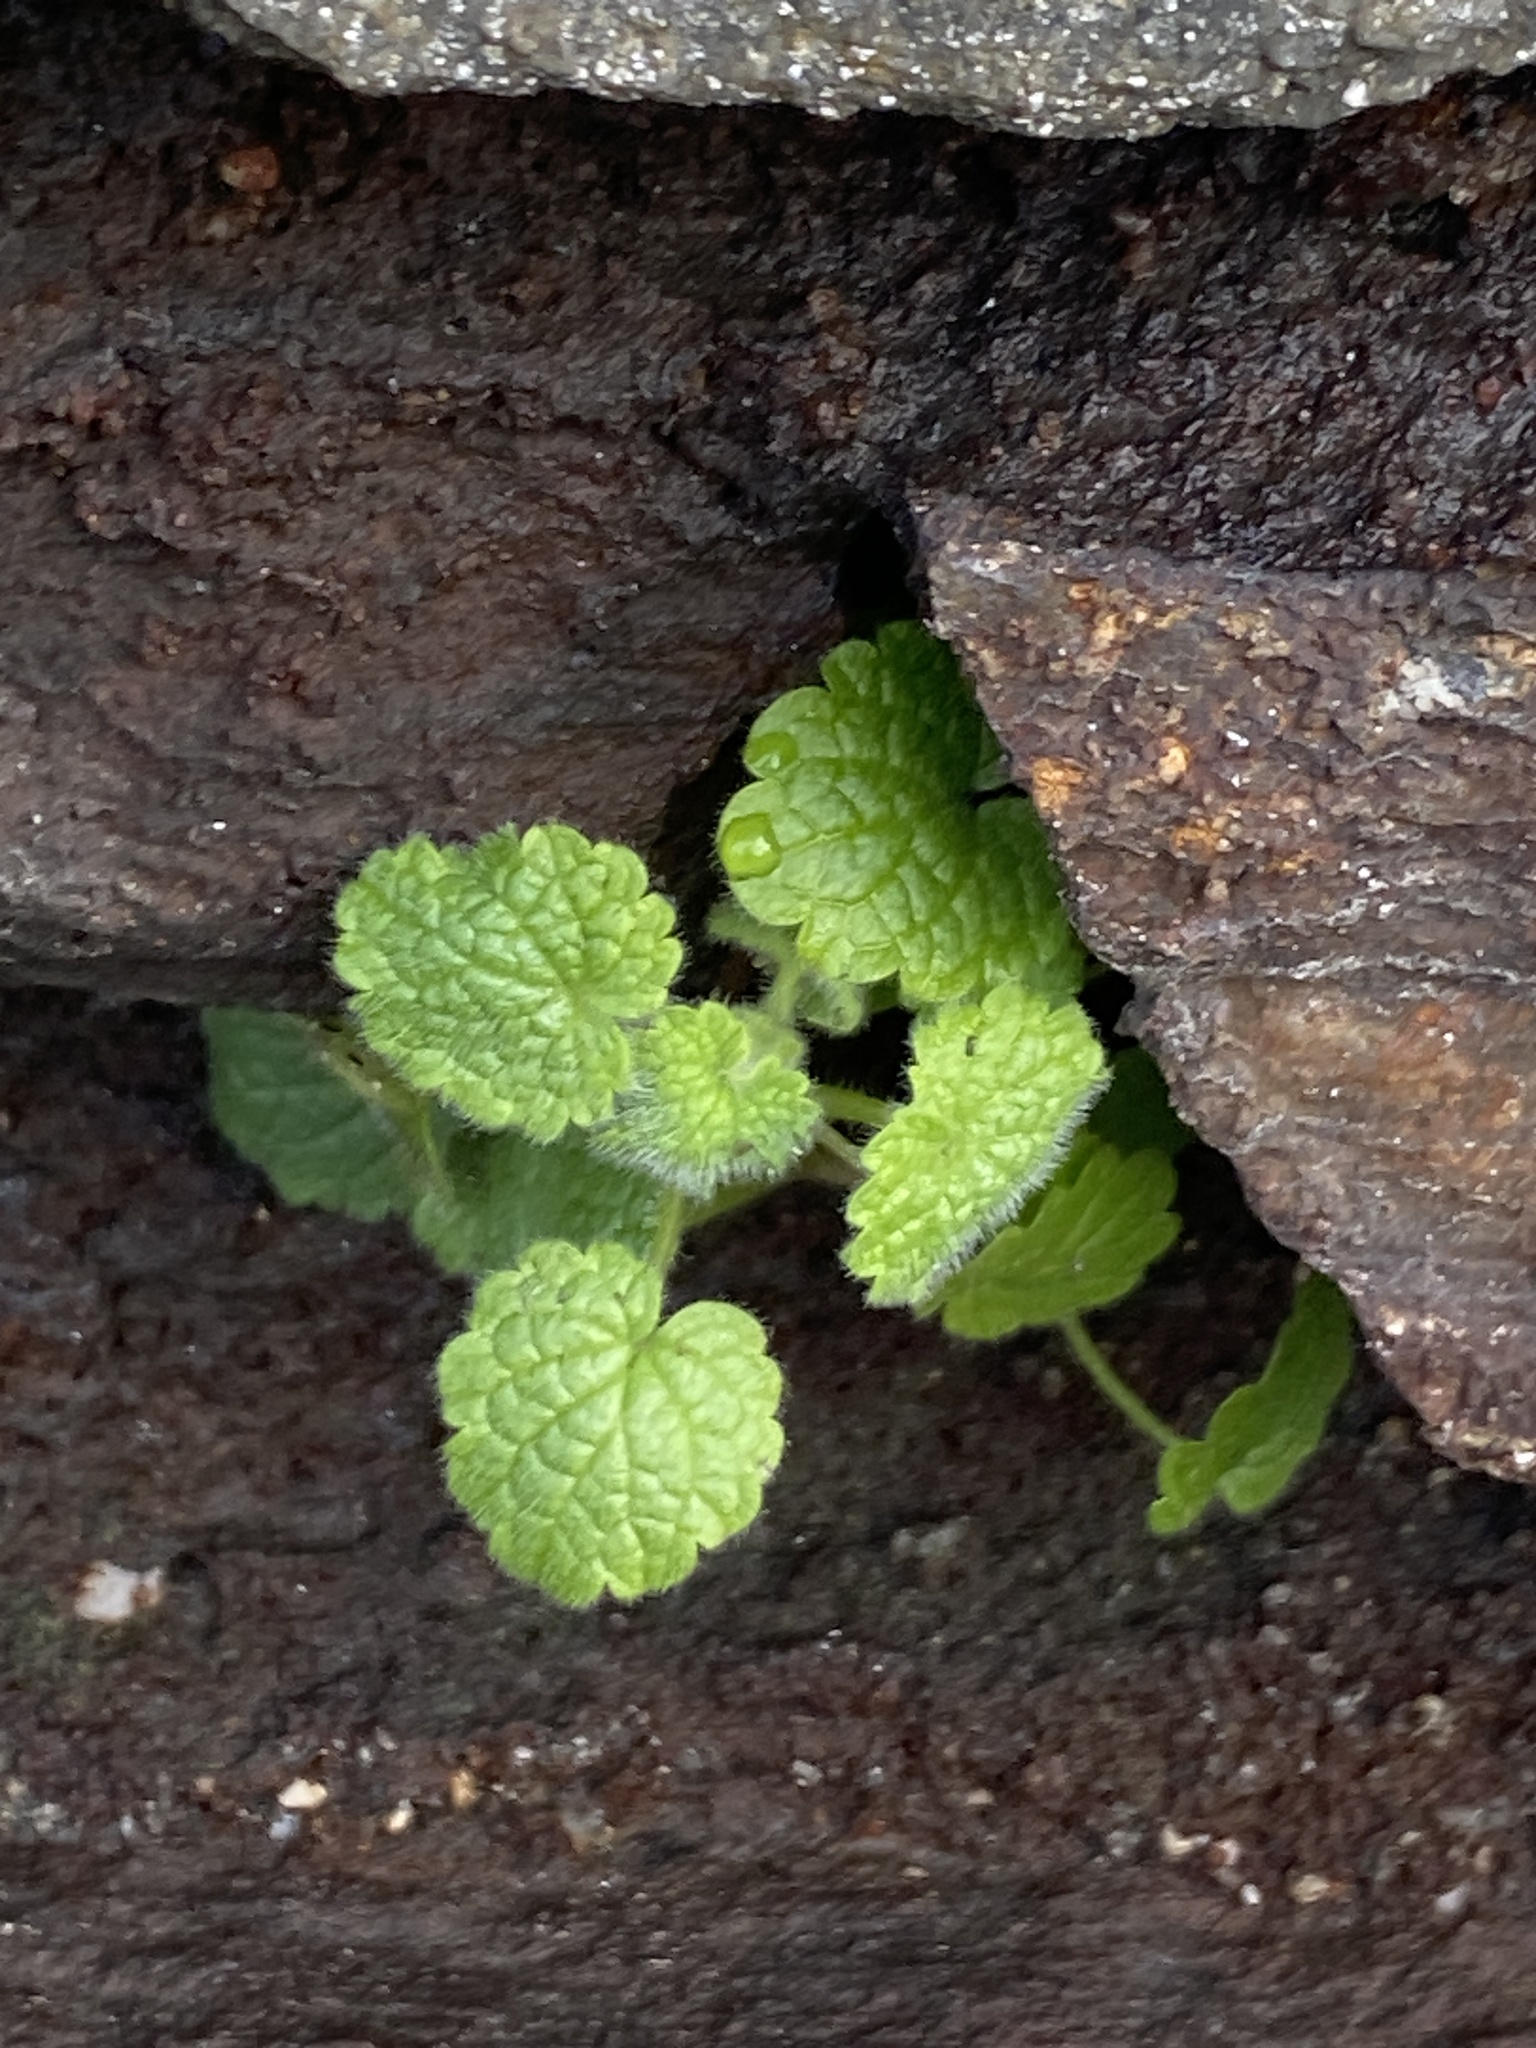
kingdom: Plantae
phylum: Tracheophyta
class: Magnoliopsida
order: Lamiales
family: Lamiaceae
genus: Lamium
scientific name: Lamium purpureum
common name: Red dead-nettle
